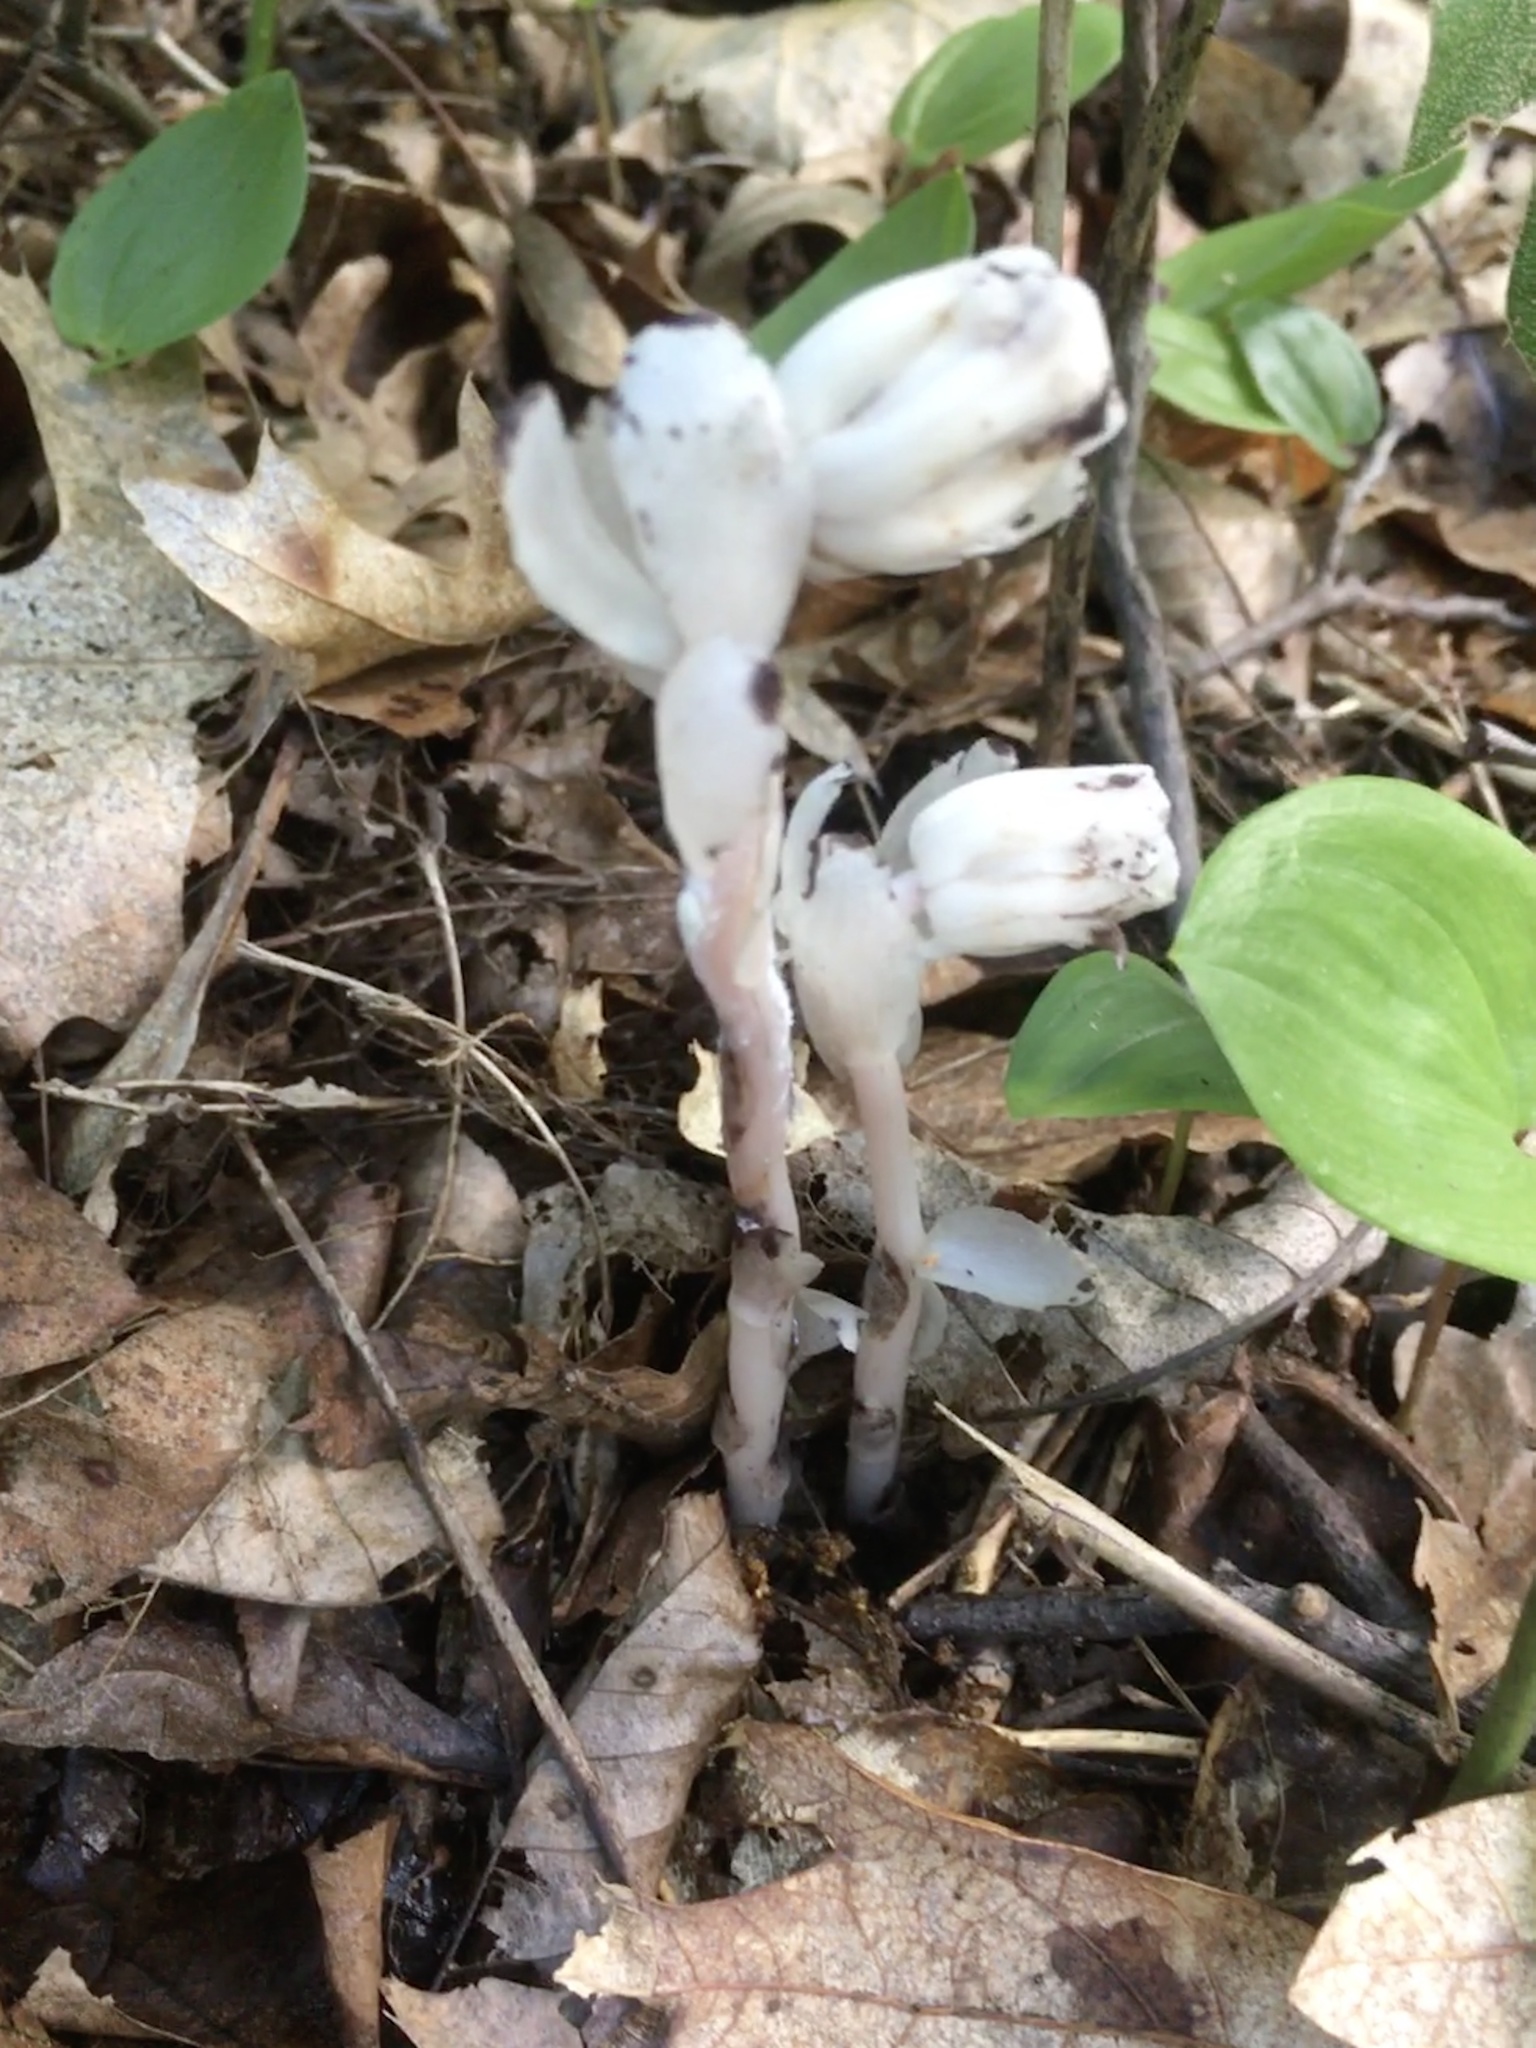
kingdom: Plantae
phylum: Tracheophyta
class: Magnoliopsida
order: Ericales
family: Ericaceae
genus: Monotropa
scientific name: Monotropa uniflora
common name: Convulsion root
